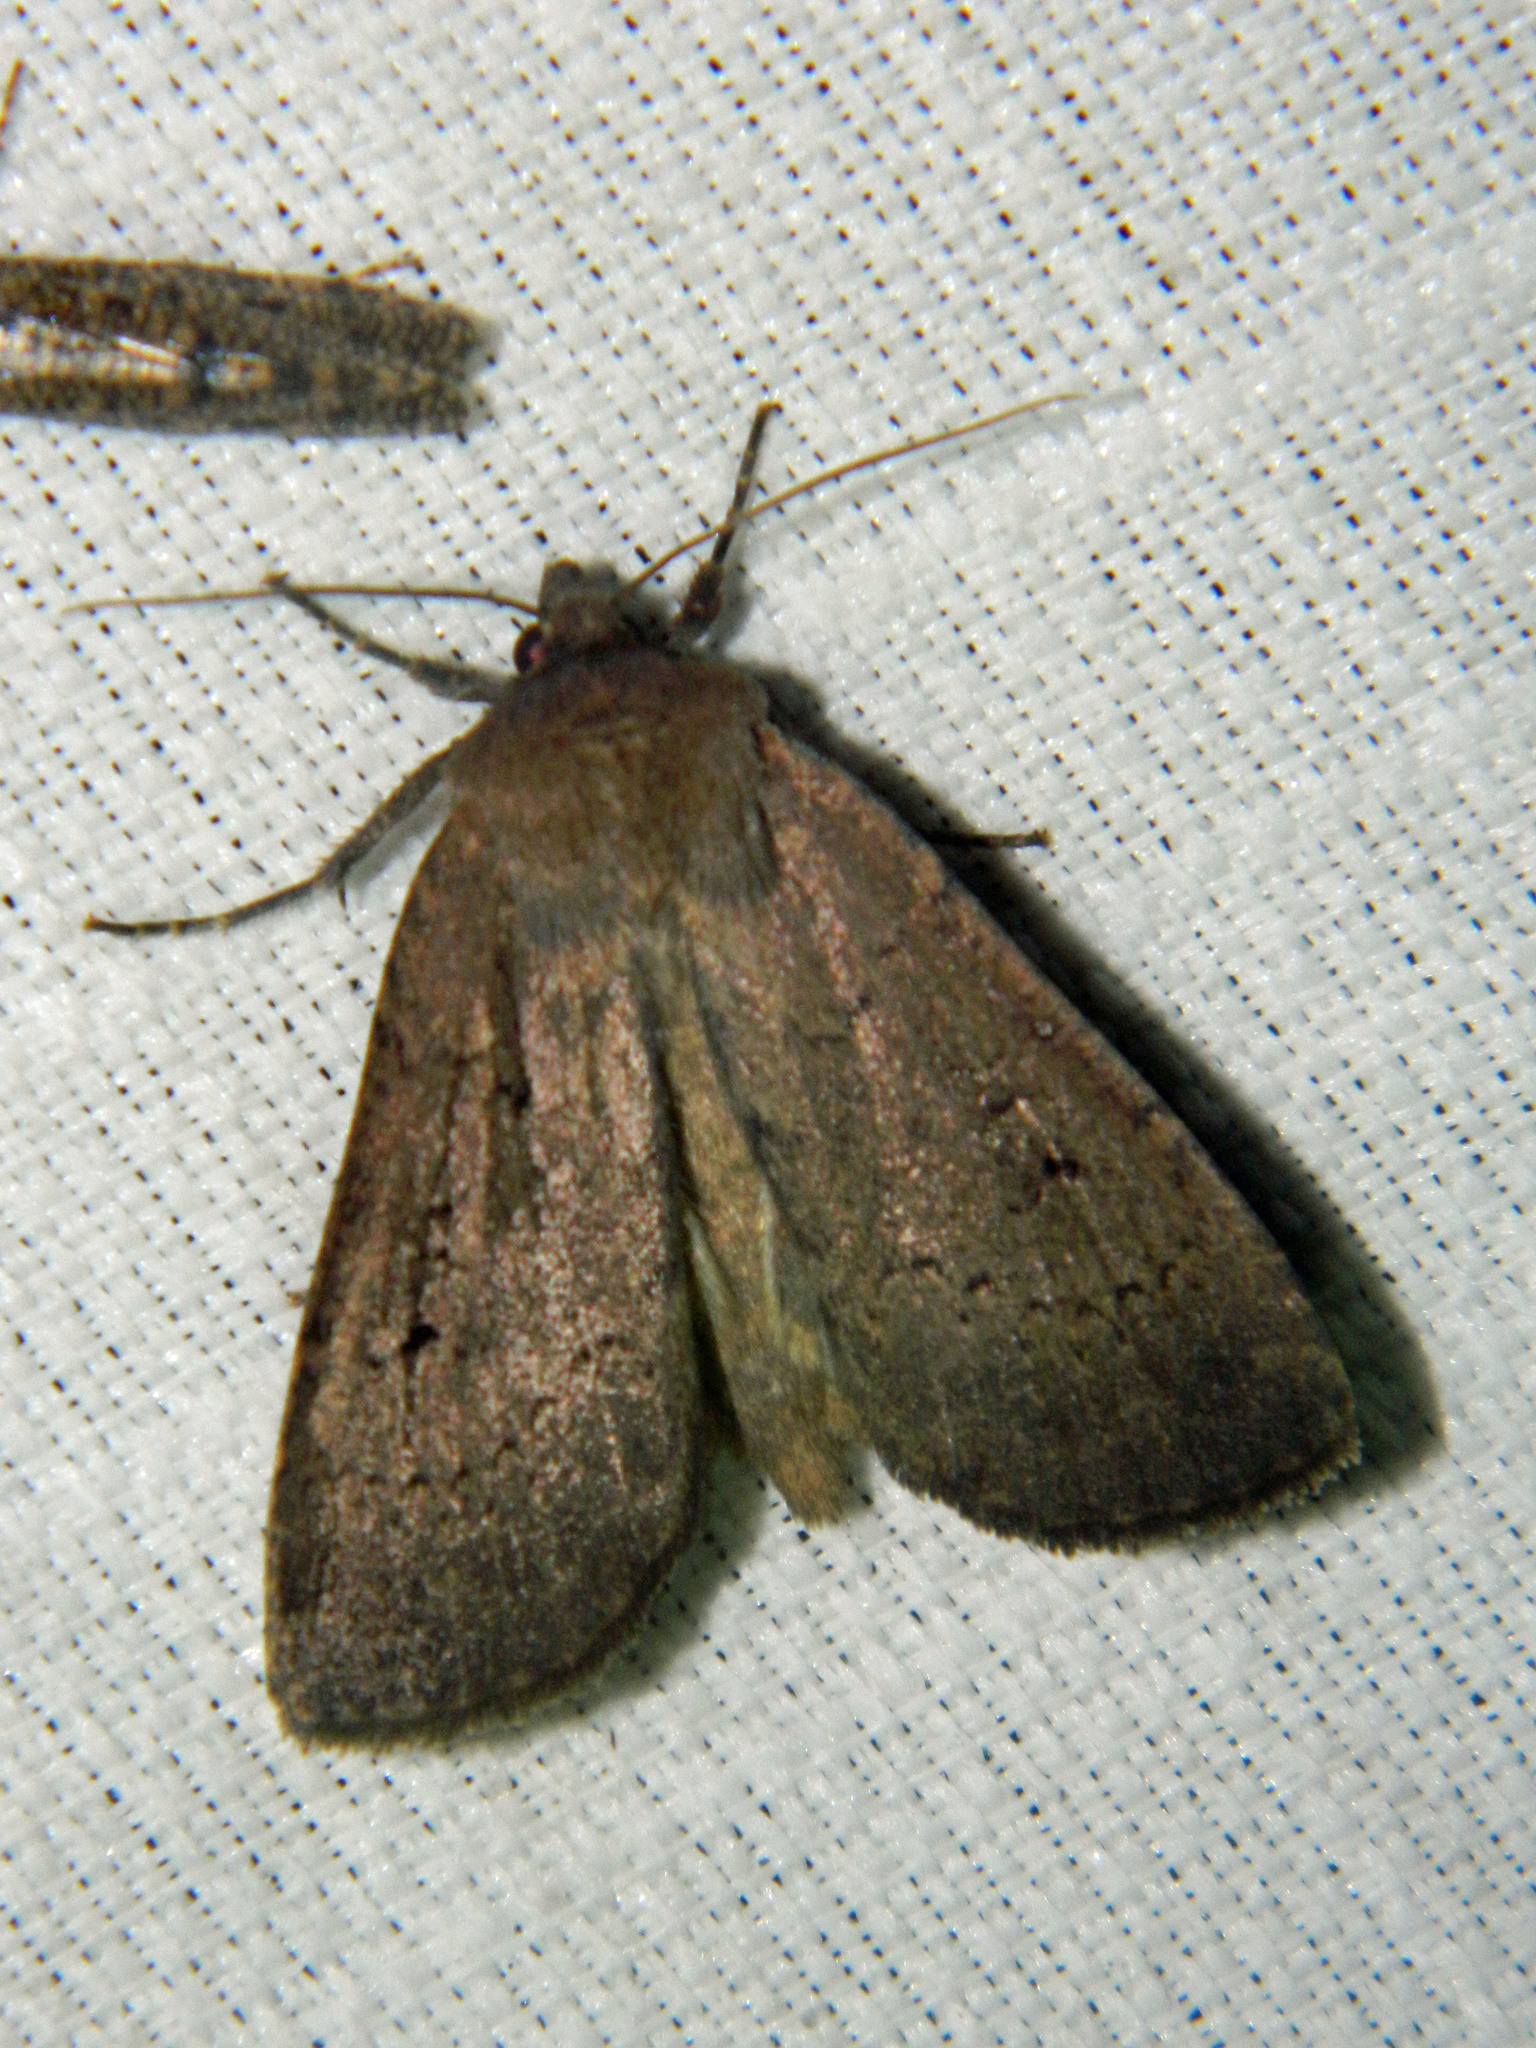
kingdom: Animalia
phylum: Arthropoda
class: Insecta
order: Lepidoptera
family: Noctuidae
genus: Graphiphora
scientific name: Graphiphora augur
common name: Double dart
